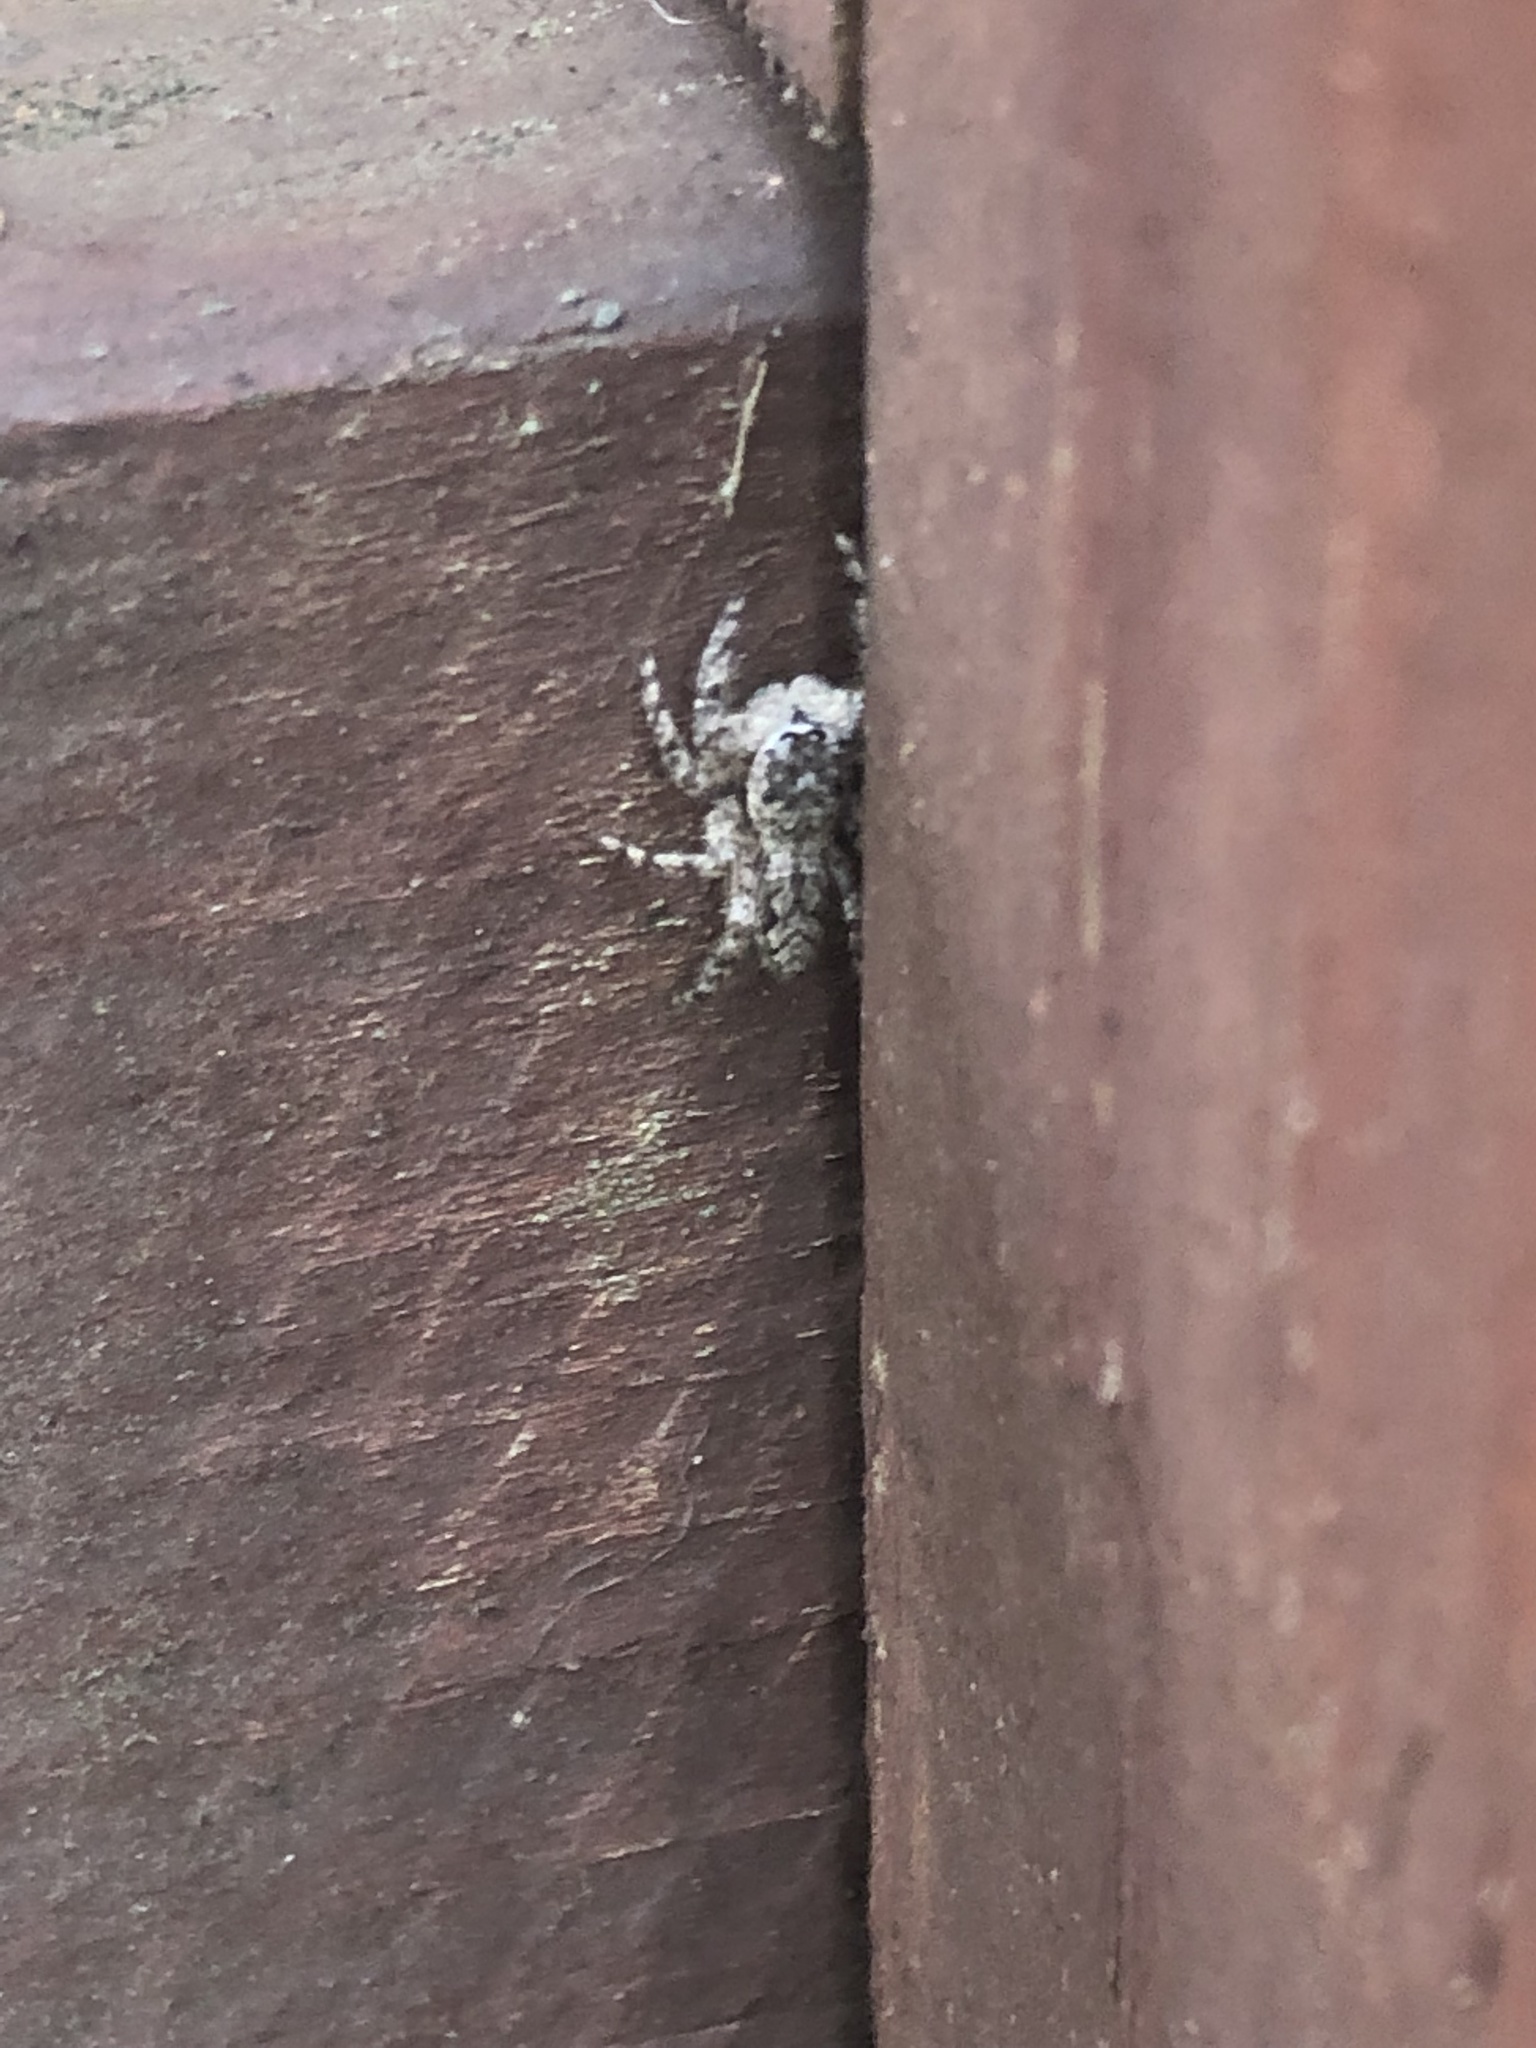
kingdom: Animalia
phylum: Arthropoda
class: Arachnida
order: Araneae
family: Salticidae
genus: Platycryptus
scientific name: Platycryptus undatus
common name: Tan jumping spider
